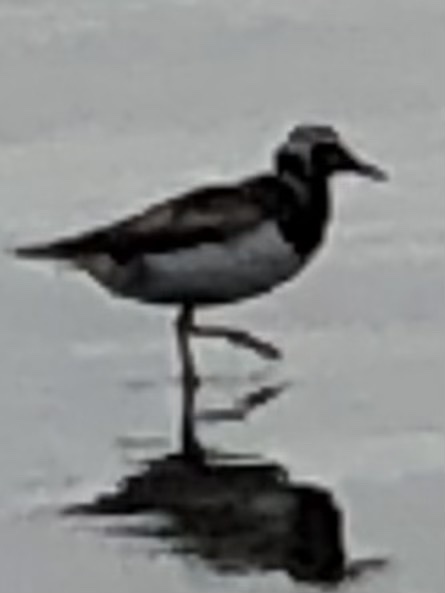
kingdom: Animalia
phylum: Chordata
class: Aves
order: Charadriiformes
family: Scolopacidae
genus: Arenaria
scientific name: Arenaria interpres
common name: Ruddy turnstone
